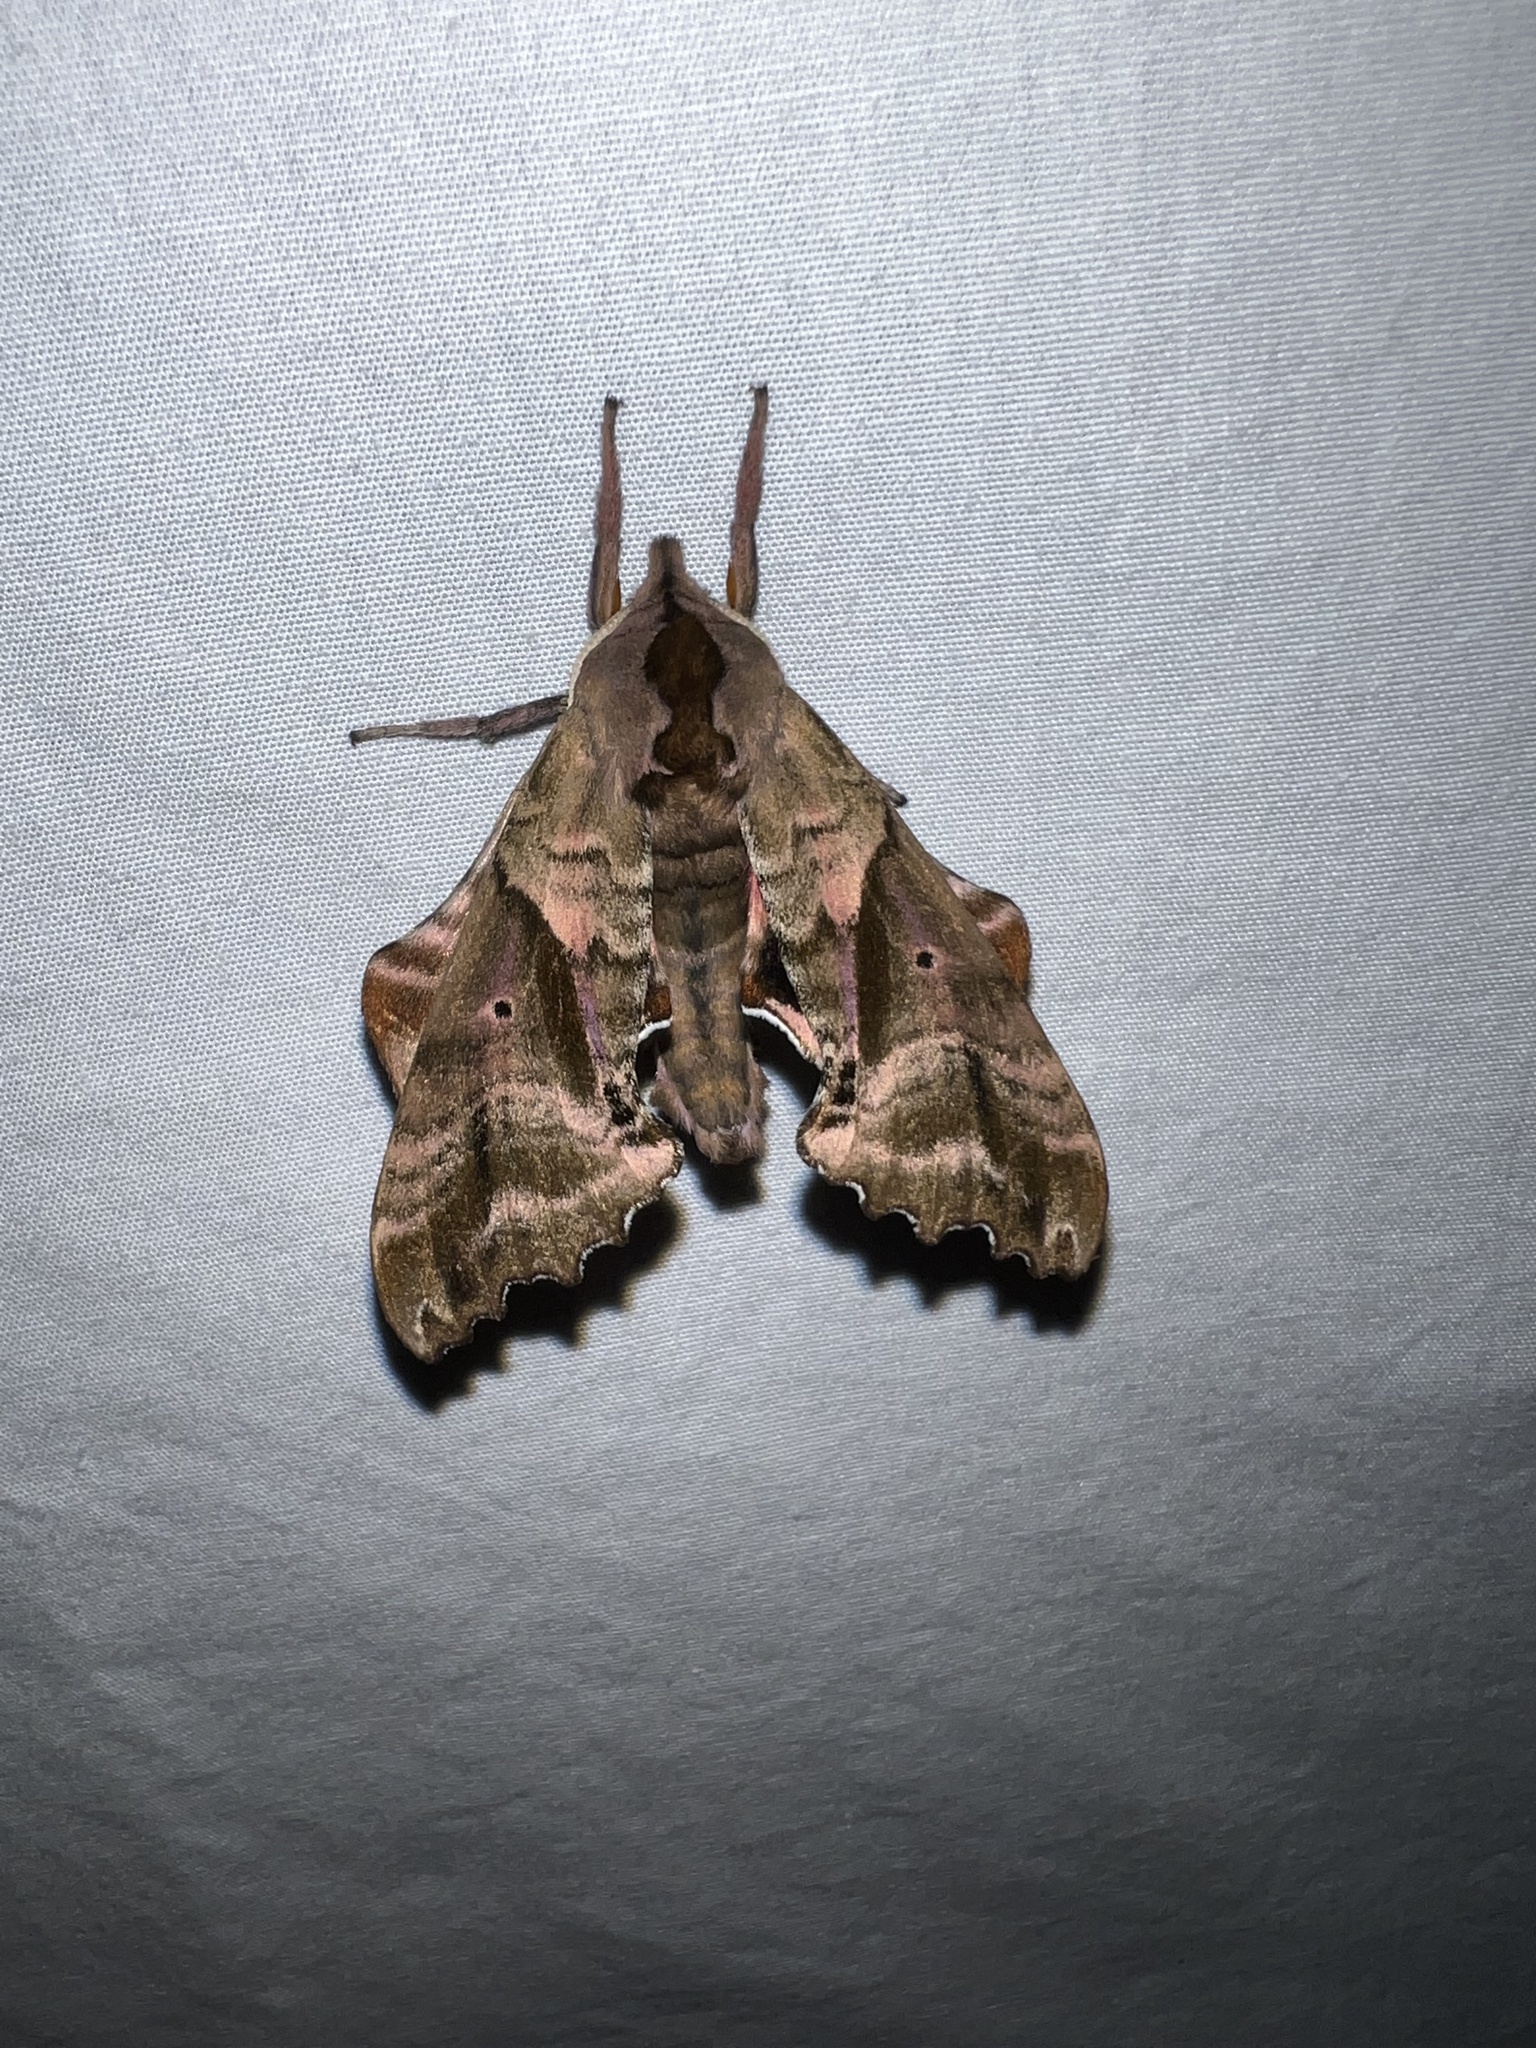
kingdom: Animalia
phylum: Arthropoda
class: Insecta
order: Lepidoptera
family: Sphingidae
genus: Paonias
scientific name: Paonias excaecata
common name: Blind-eyed sphinx
